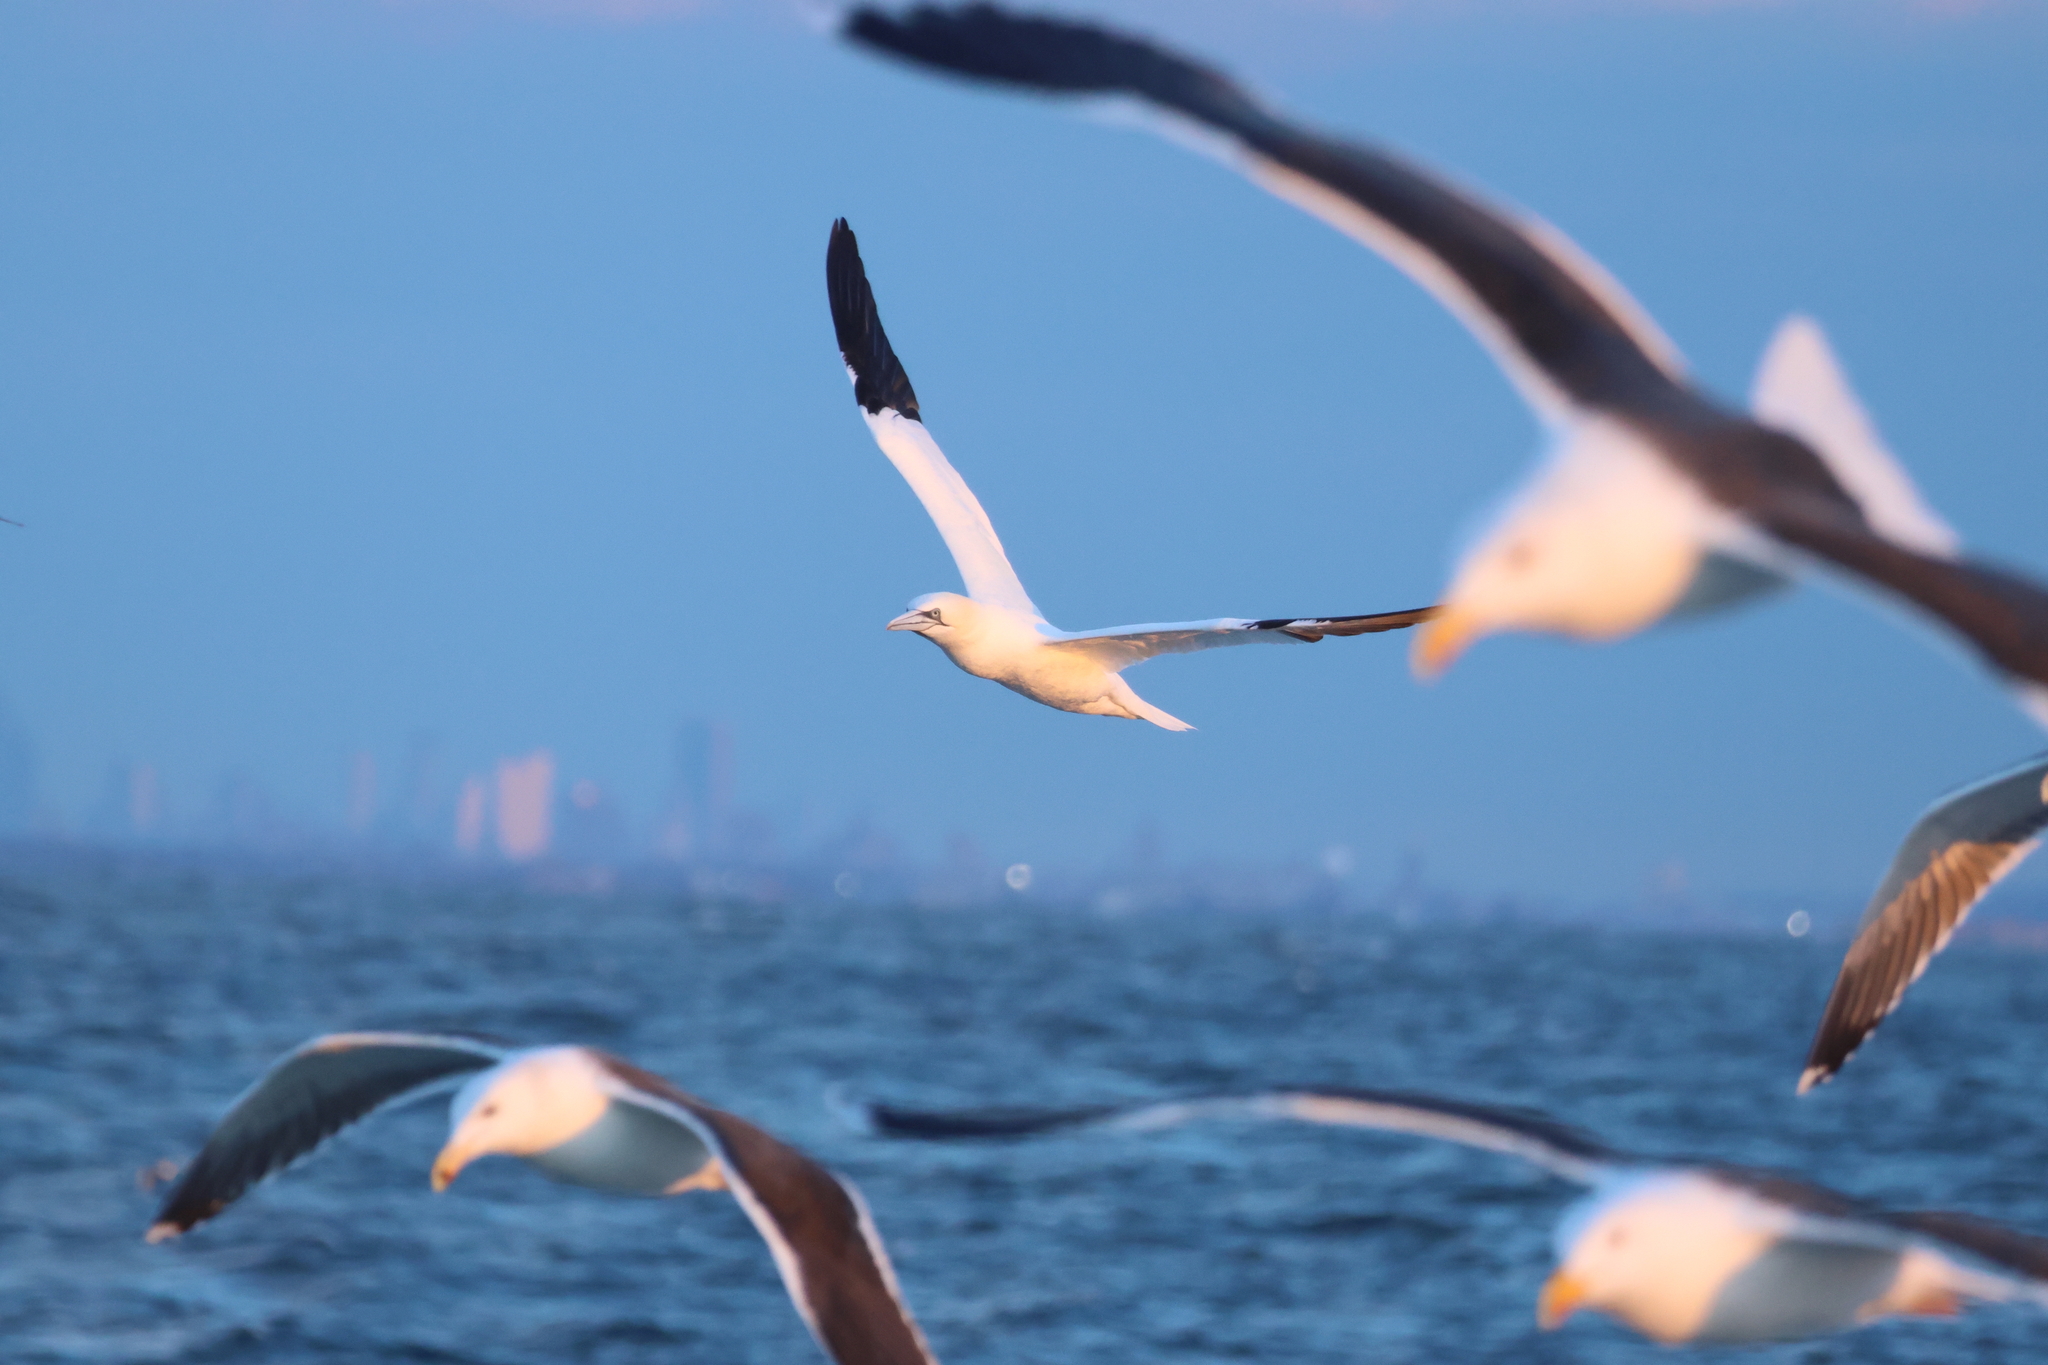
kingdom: Animalia
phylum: Chordata
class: Aves
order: Suliformes
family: Sulidae
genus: Morus
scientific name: Morus bassanus
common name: Northern gannet
